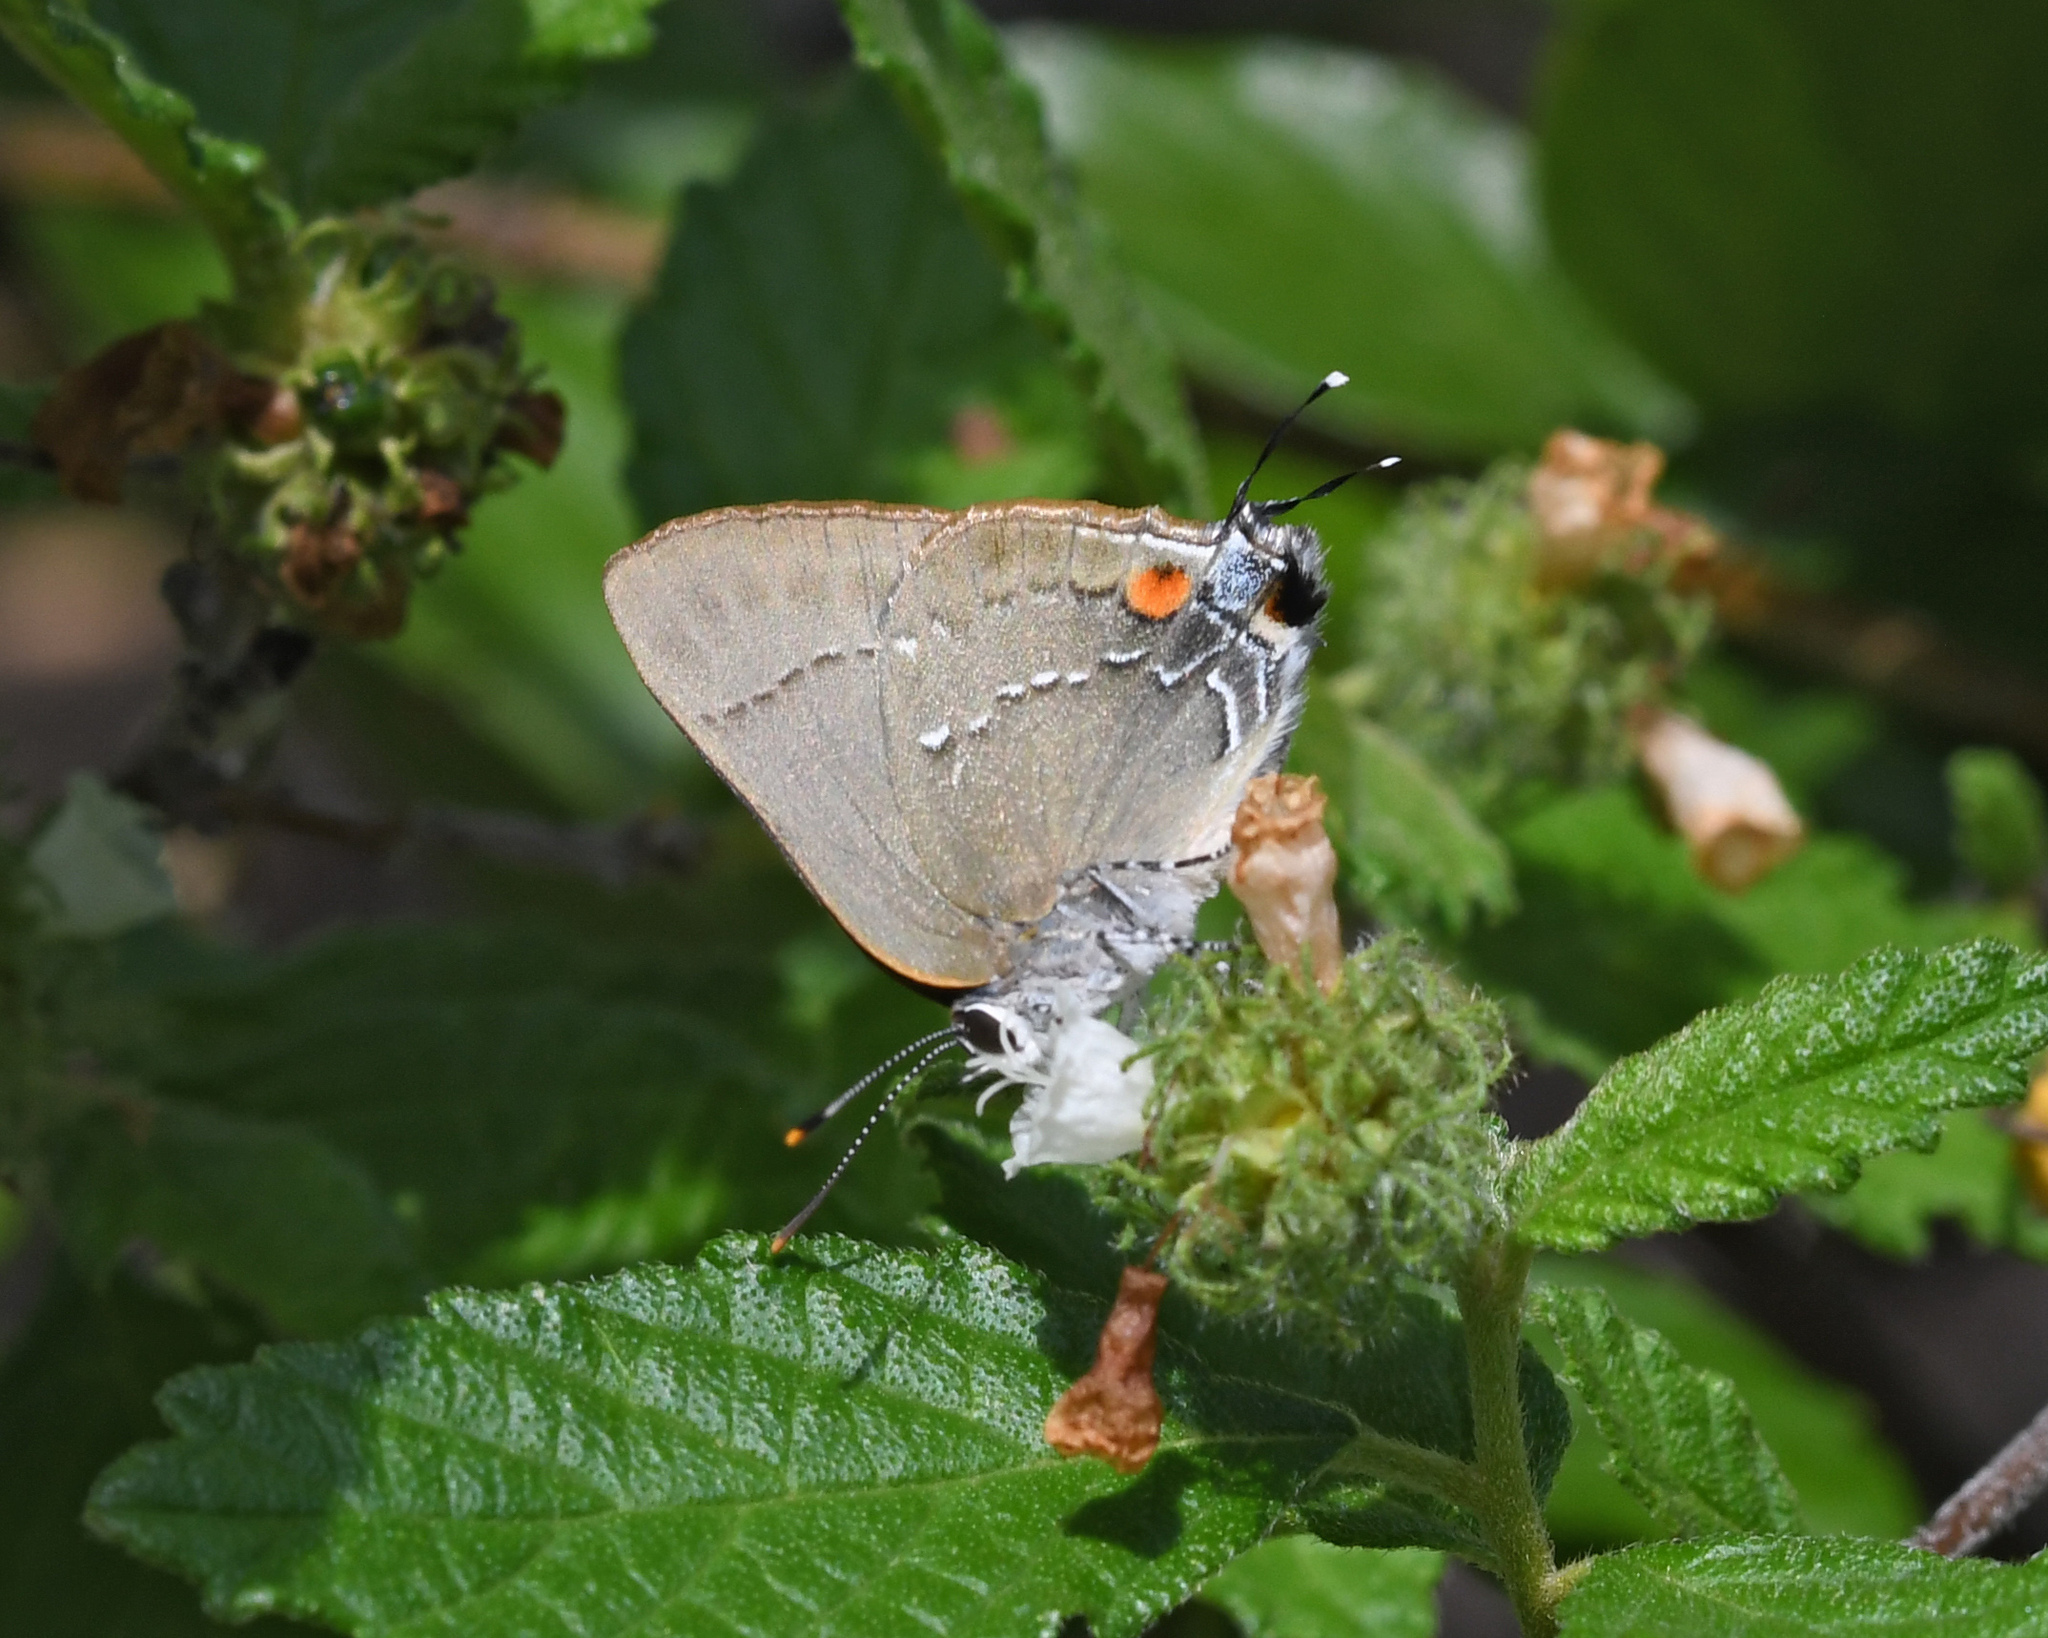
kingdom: Animalia
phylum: Arthropoda
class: Insecta
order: Lepidoptera
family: Lycaenidae
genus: Allosmaitia
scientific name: Allosmaitia fidena
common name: Fidena hairstreak
